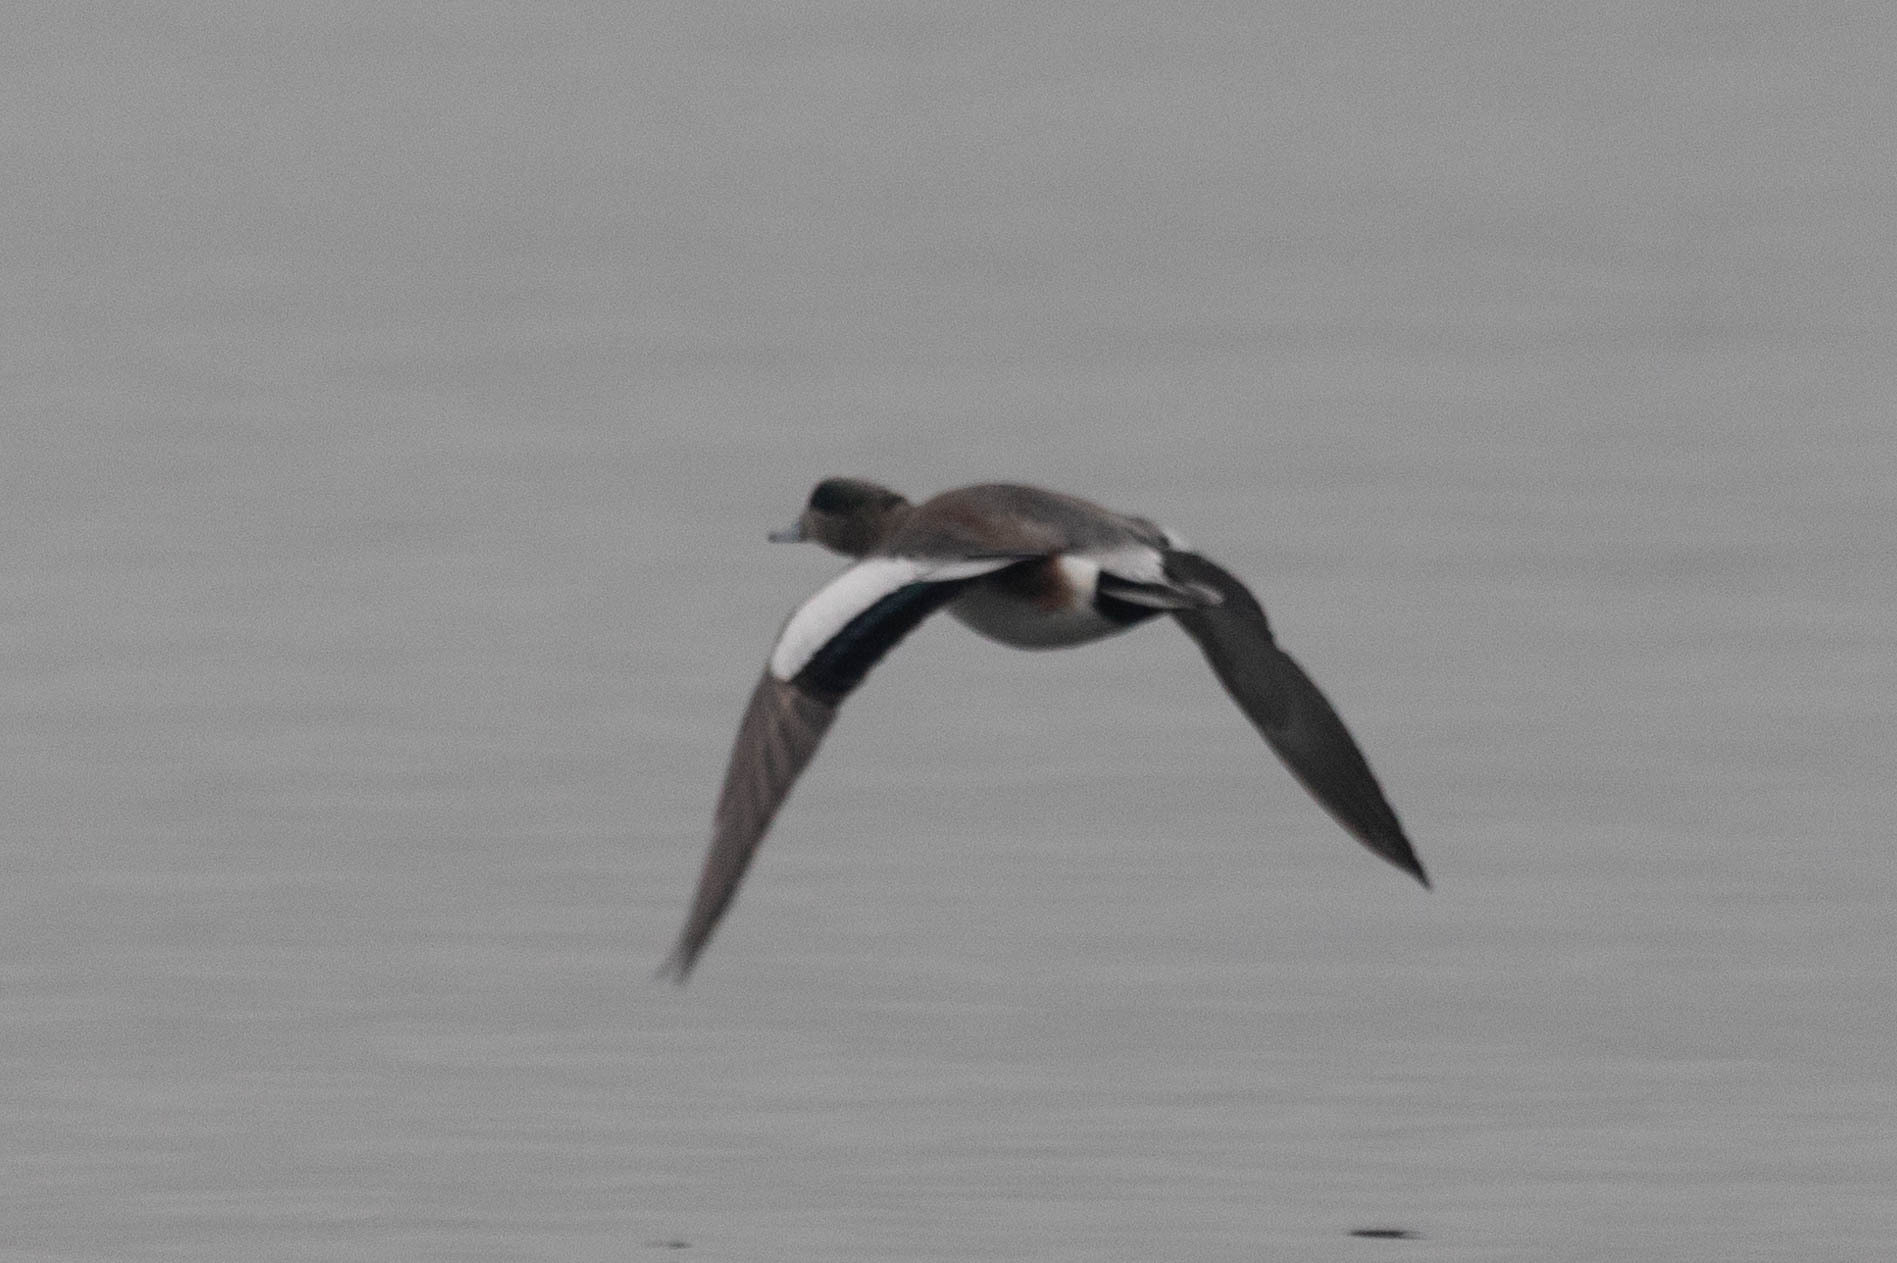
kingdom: Animalia
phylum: Chordata
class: Aves
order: Anseriformes
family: Anatidae
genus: Mareca
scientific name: Mareca americana
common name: American wigeon
